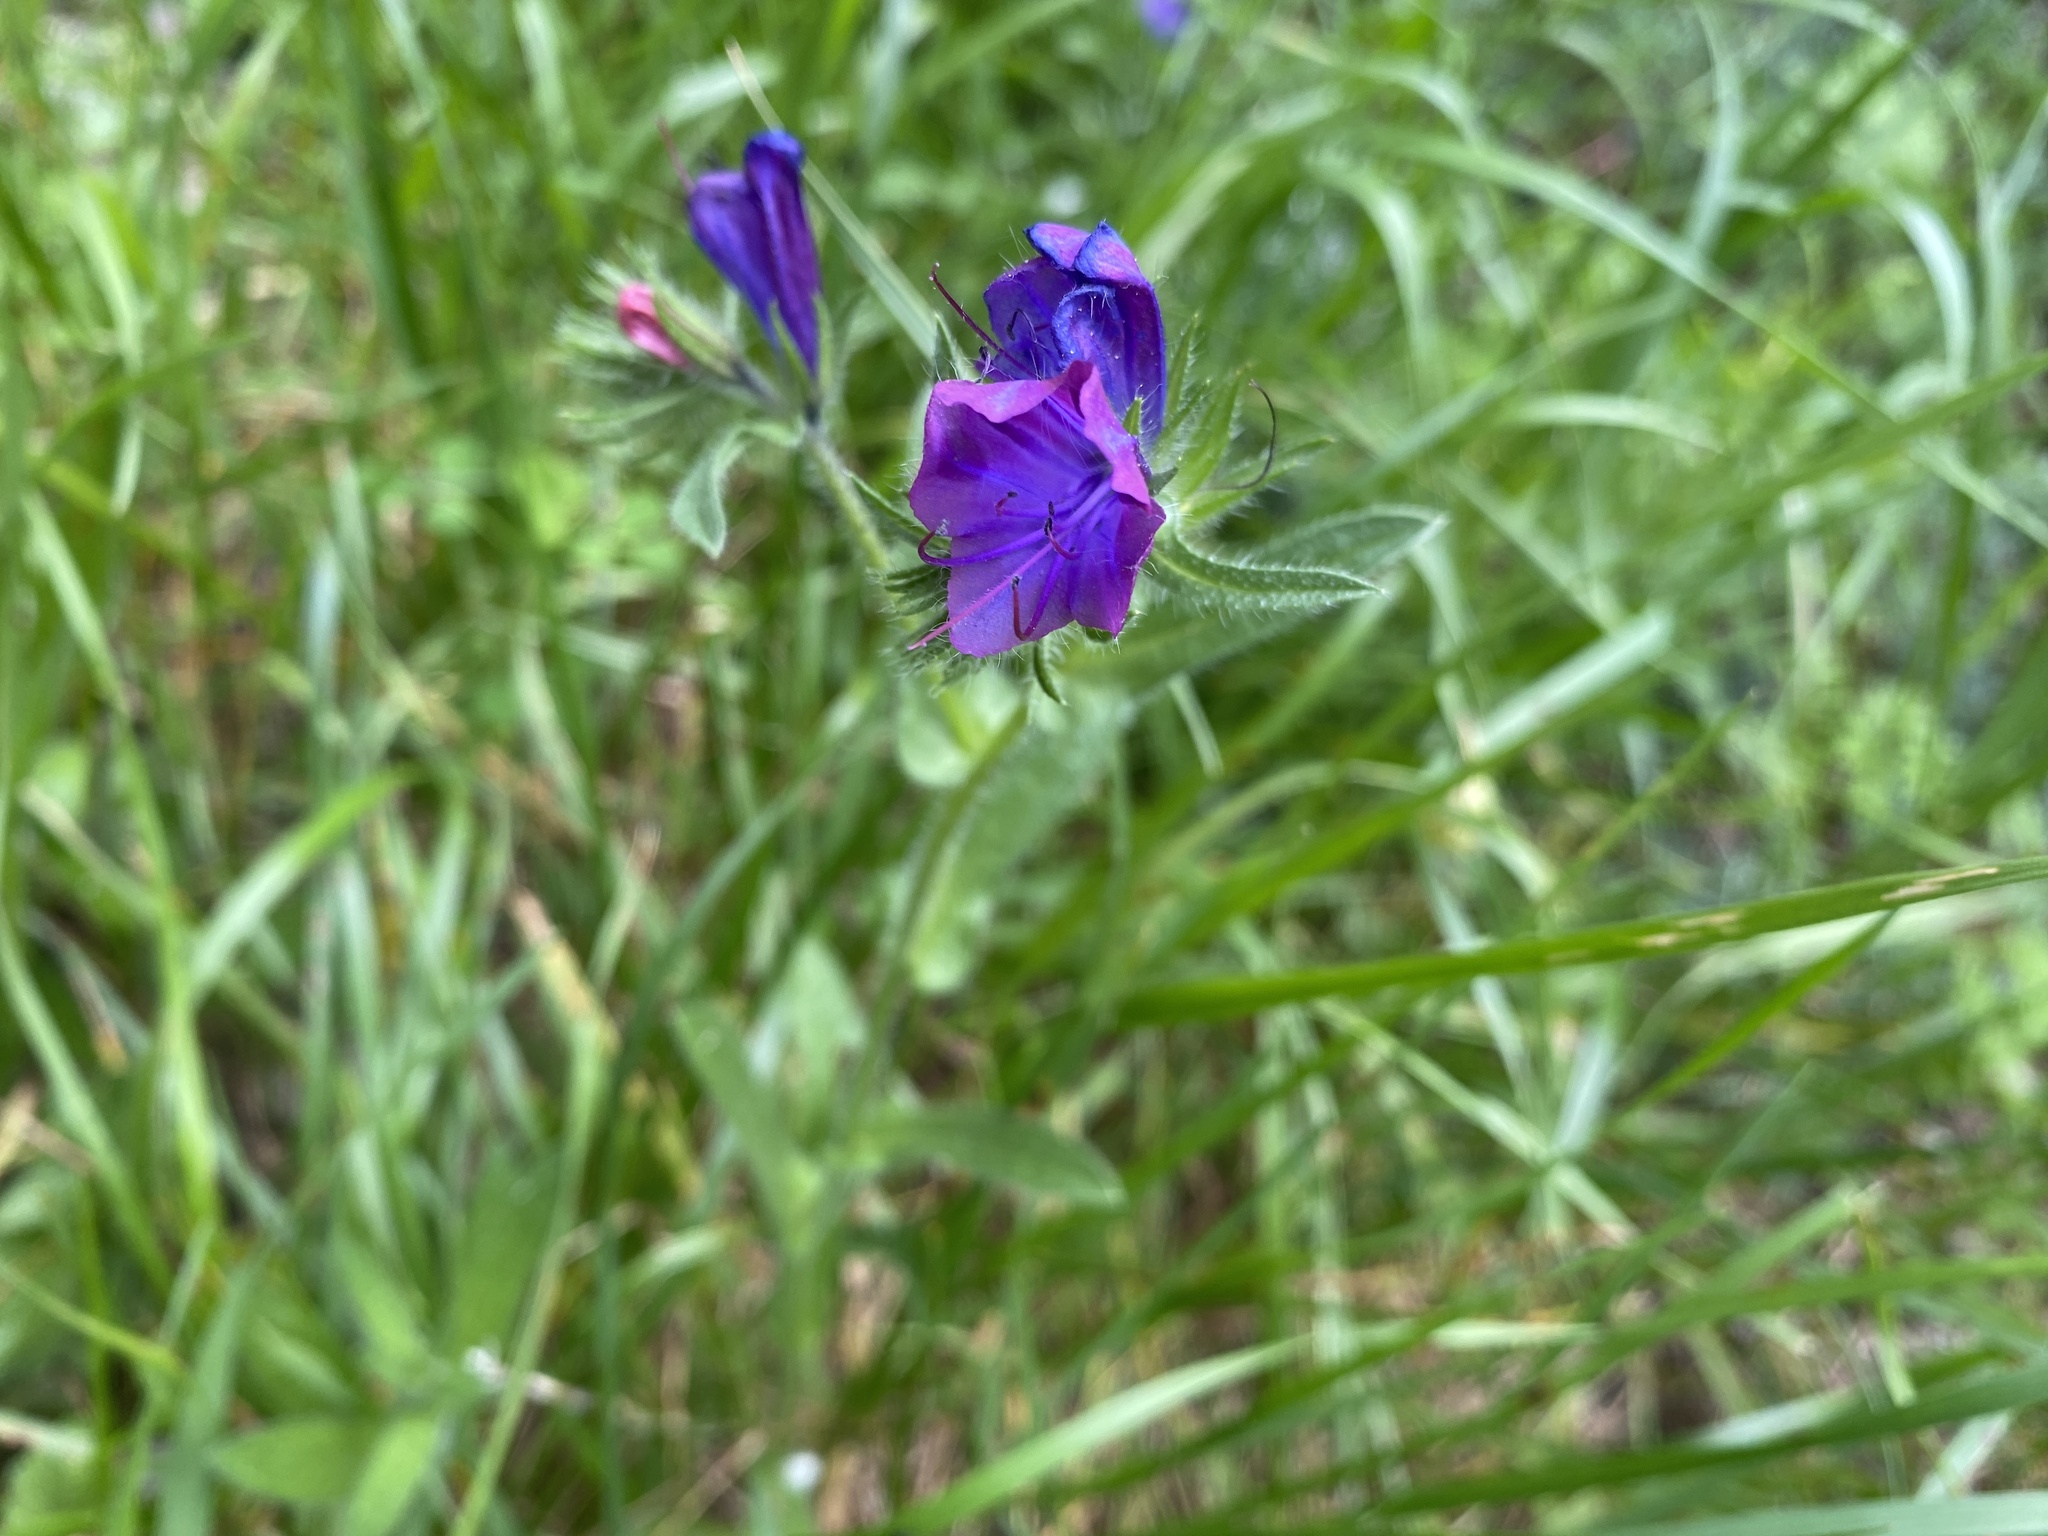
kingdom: Plantae
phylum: Tracheophyta
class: Magnoliopsida
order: Boraginales
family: Boraginaceae
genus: Echium
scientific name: Echium plantagineum
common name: Purple viper's-bugloss
